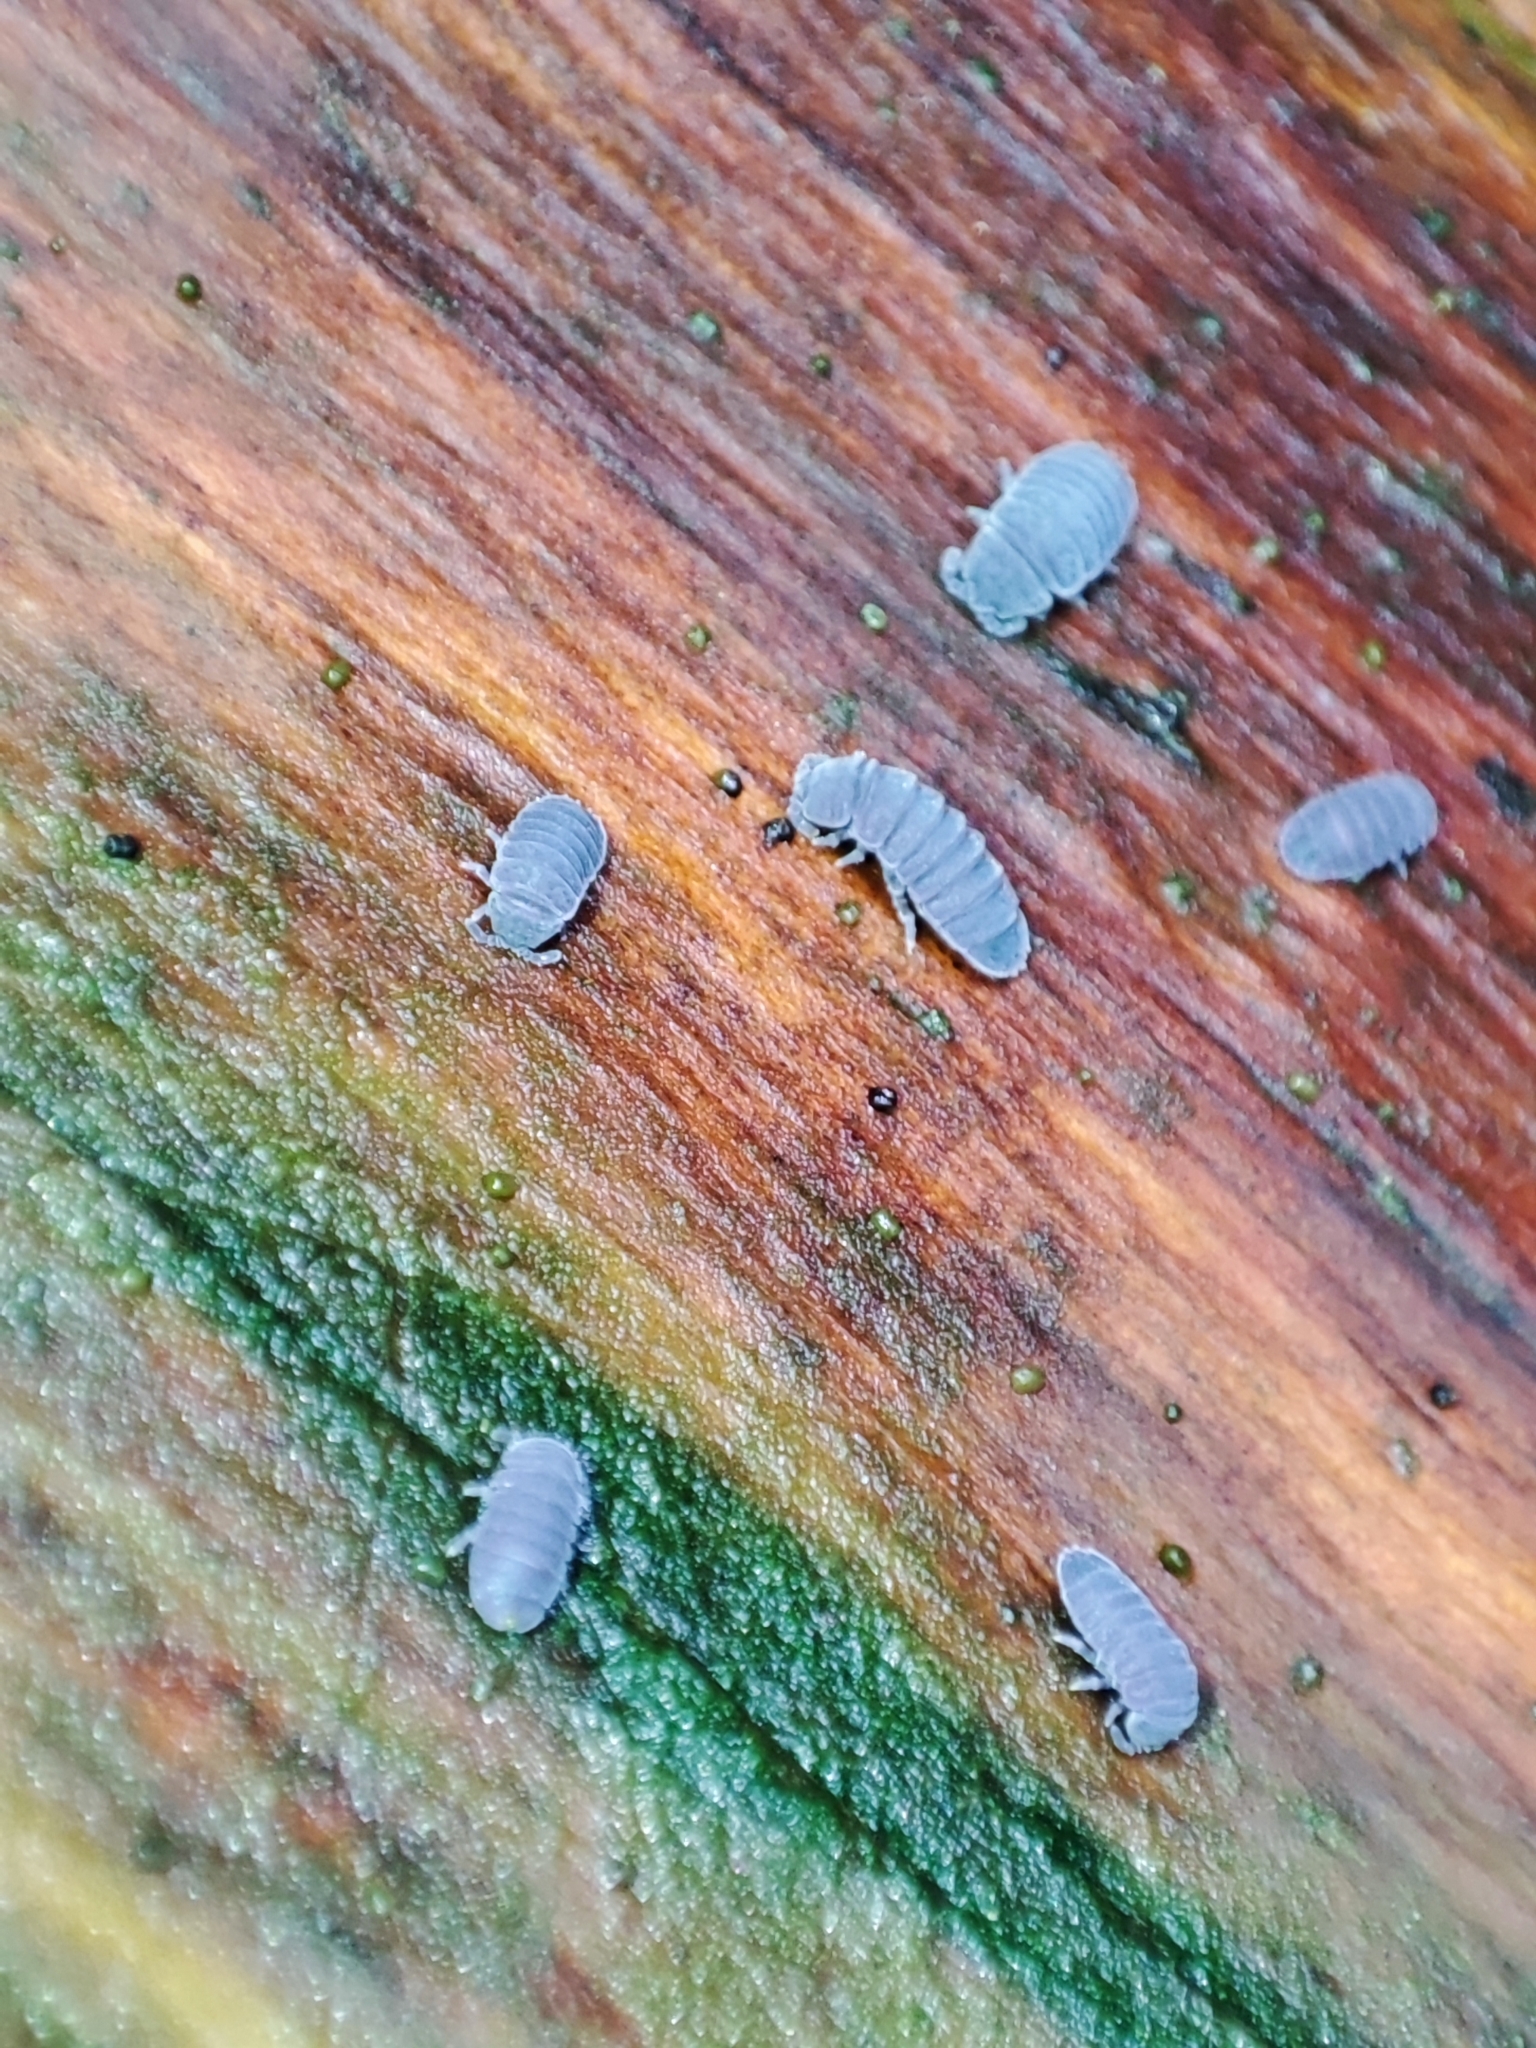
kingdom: Animalia
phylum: Arthropoda
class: Collembola
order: Poduromorpha
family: Onychiuridae
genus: Tetrodontophora
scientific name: Tetrodontophora bielanensis
